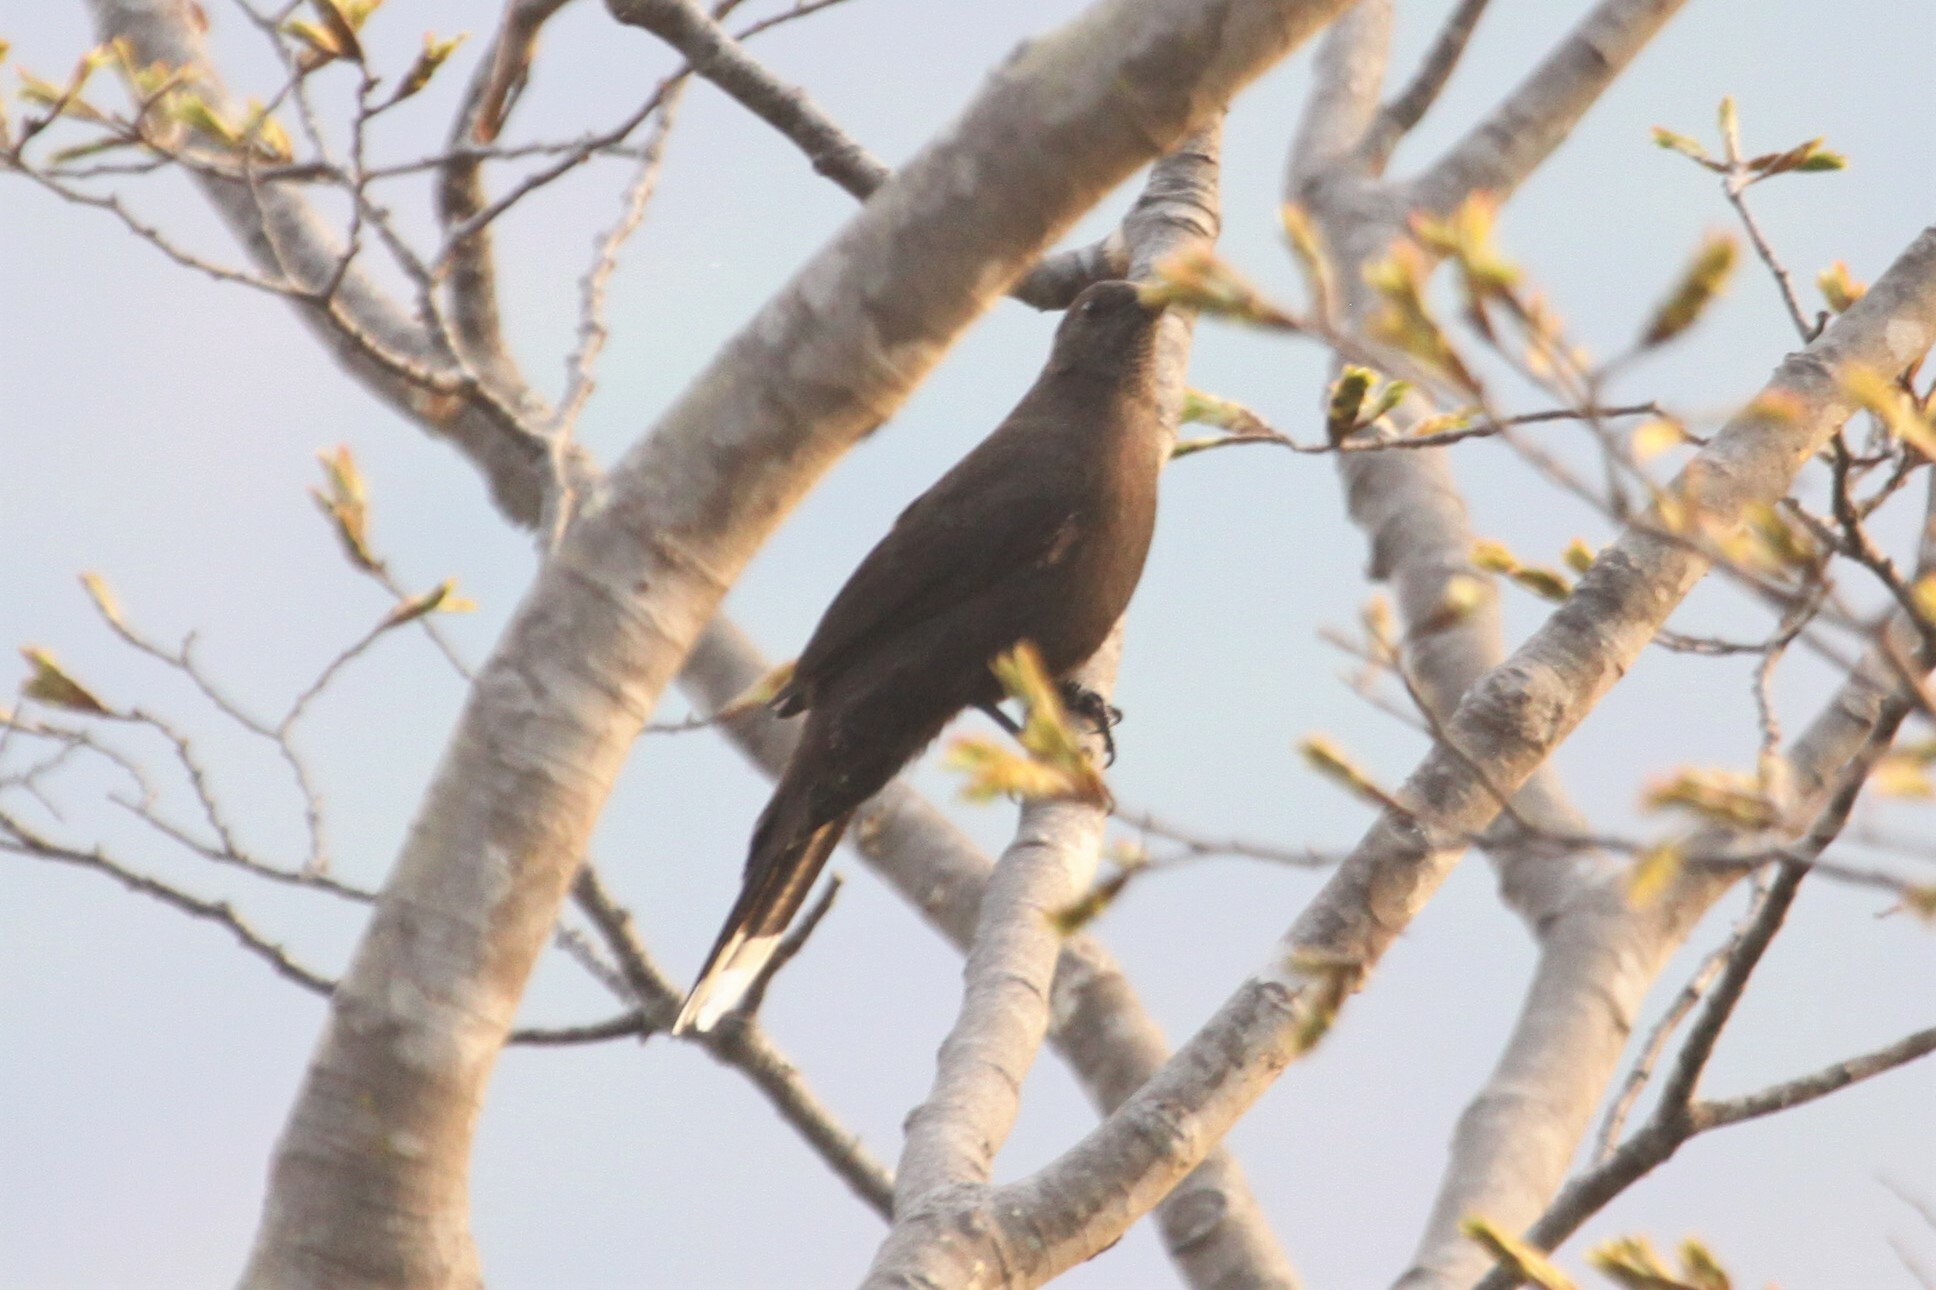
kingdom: Animalia
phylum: Chordata
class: Aves
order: Passeriformes
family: Muscicapidae
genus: Pinarornis
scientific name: Pinarornis plumosus
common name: Boulder chat
